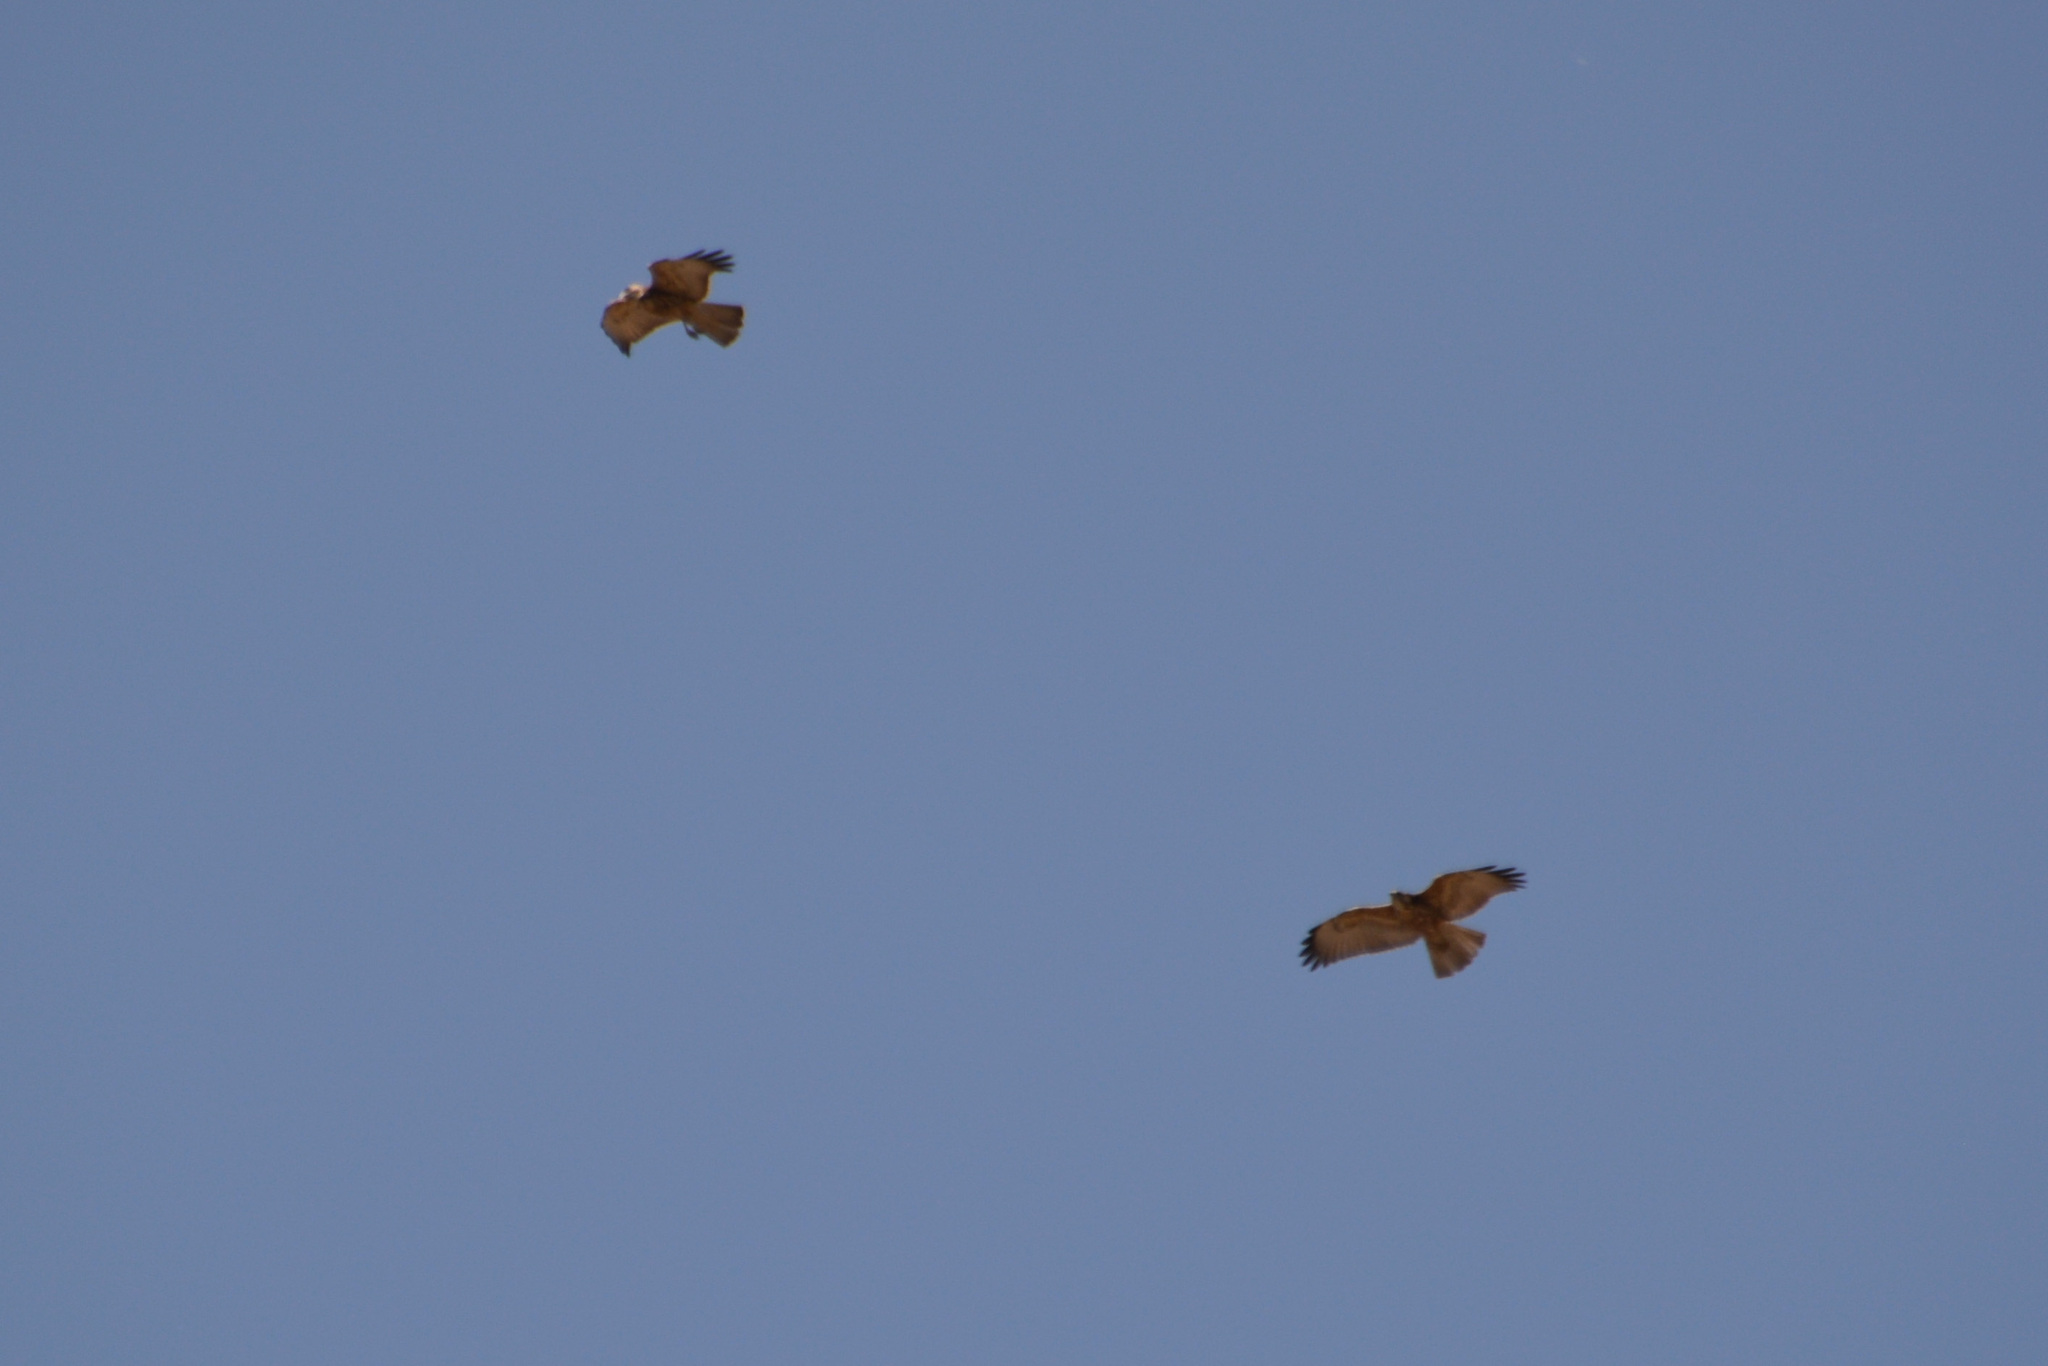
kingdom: Animalia
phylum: Chordata
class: Aves
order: Accipitriformes
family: Accipitridae
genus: Buteo
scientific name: Buteo polyosoma
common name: Variable hawk
